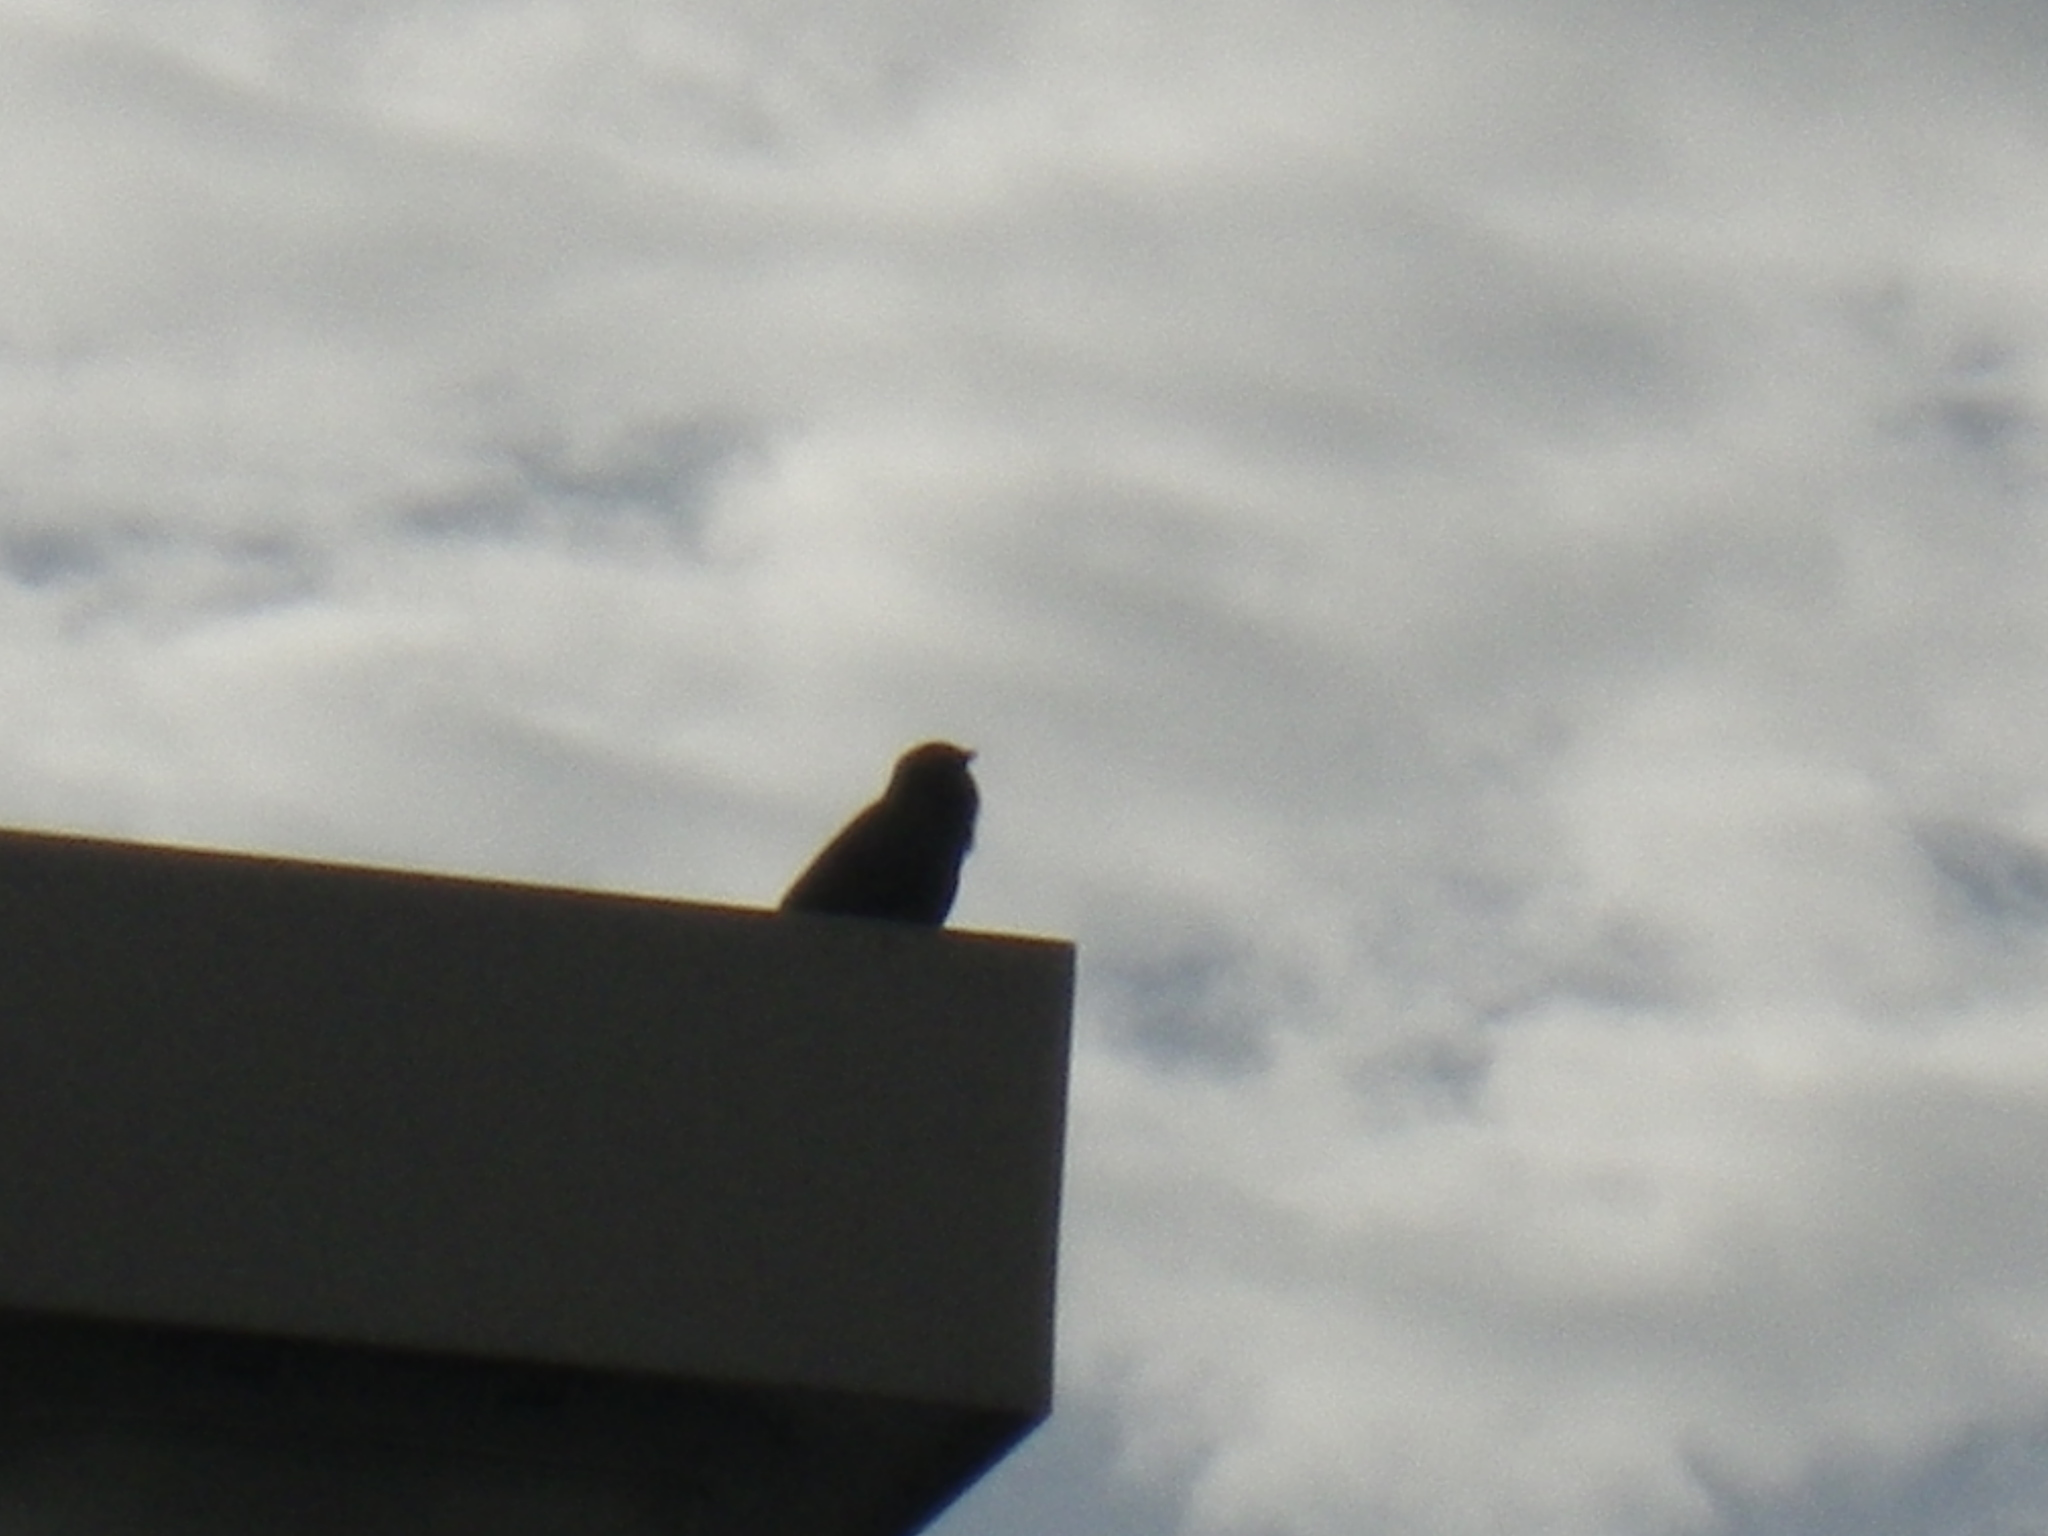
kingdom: Animalia
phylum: Chordata
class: Aves
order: Passeriformes
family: Sturnidae
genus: Sturnus
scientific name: Sturnus vulgaris
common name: Common starling
